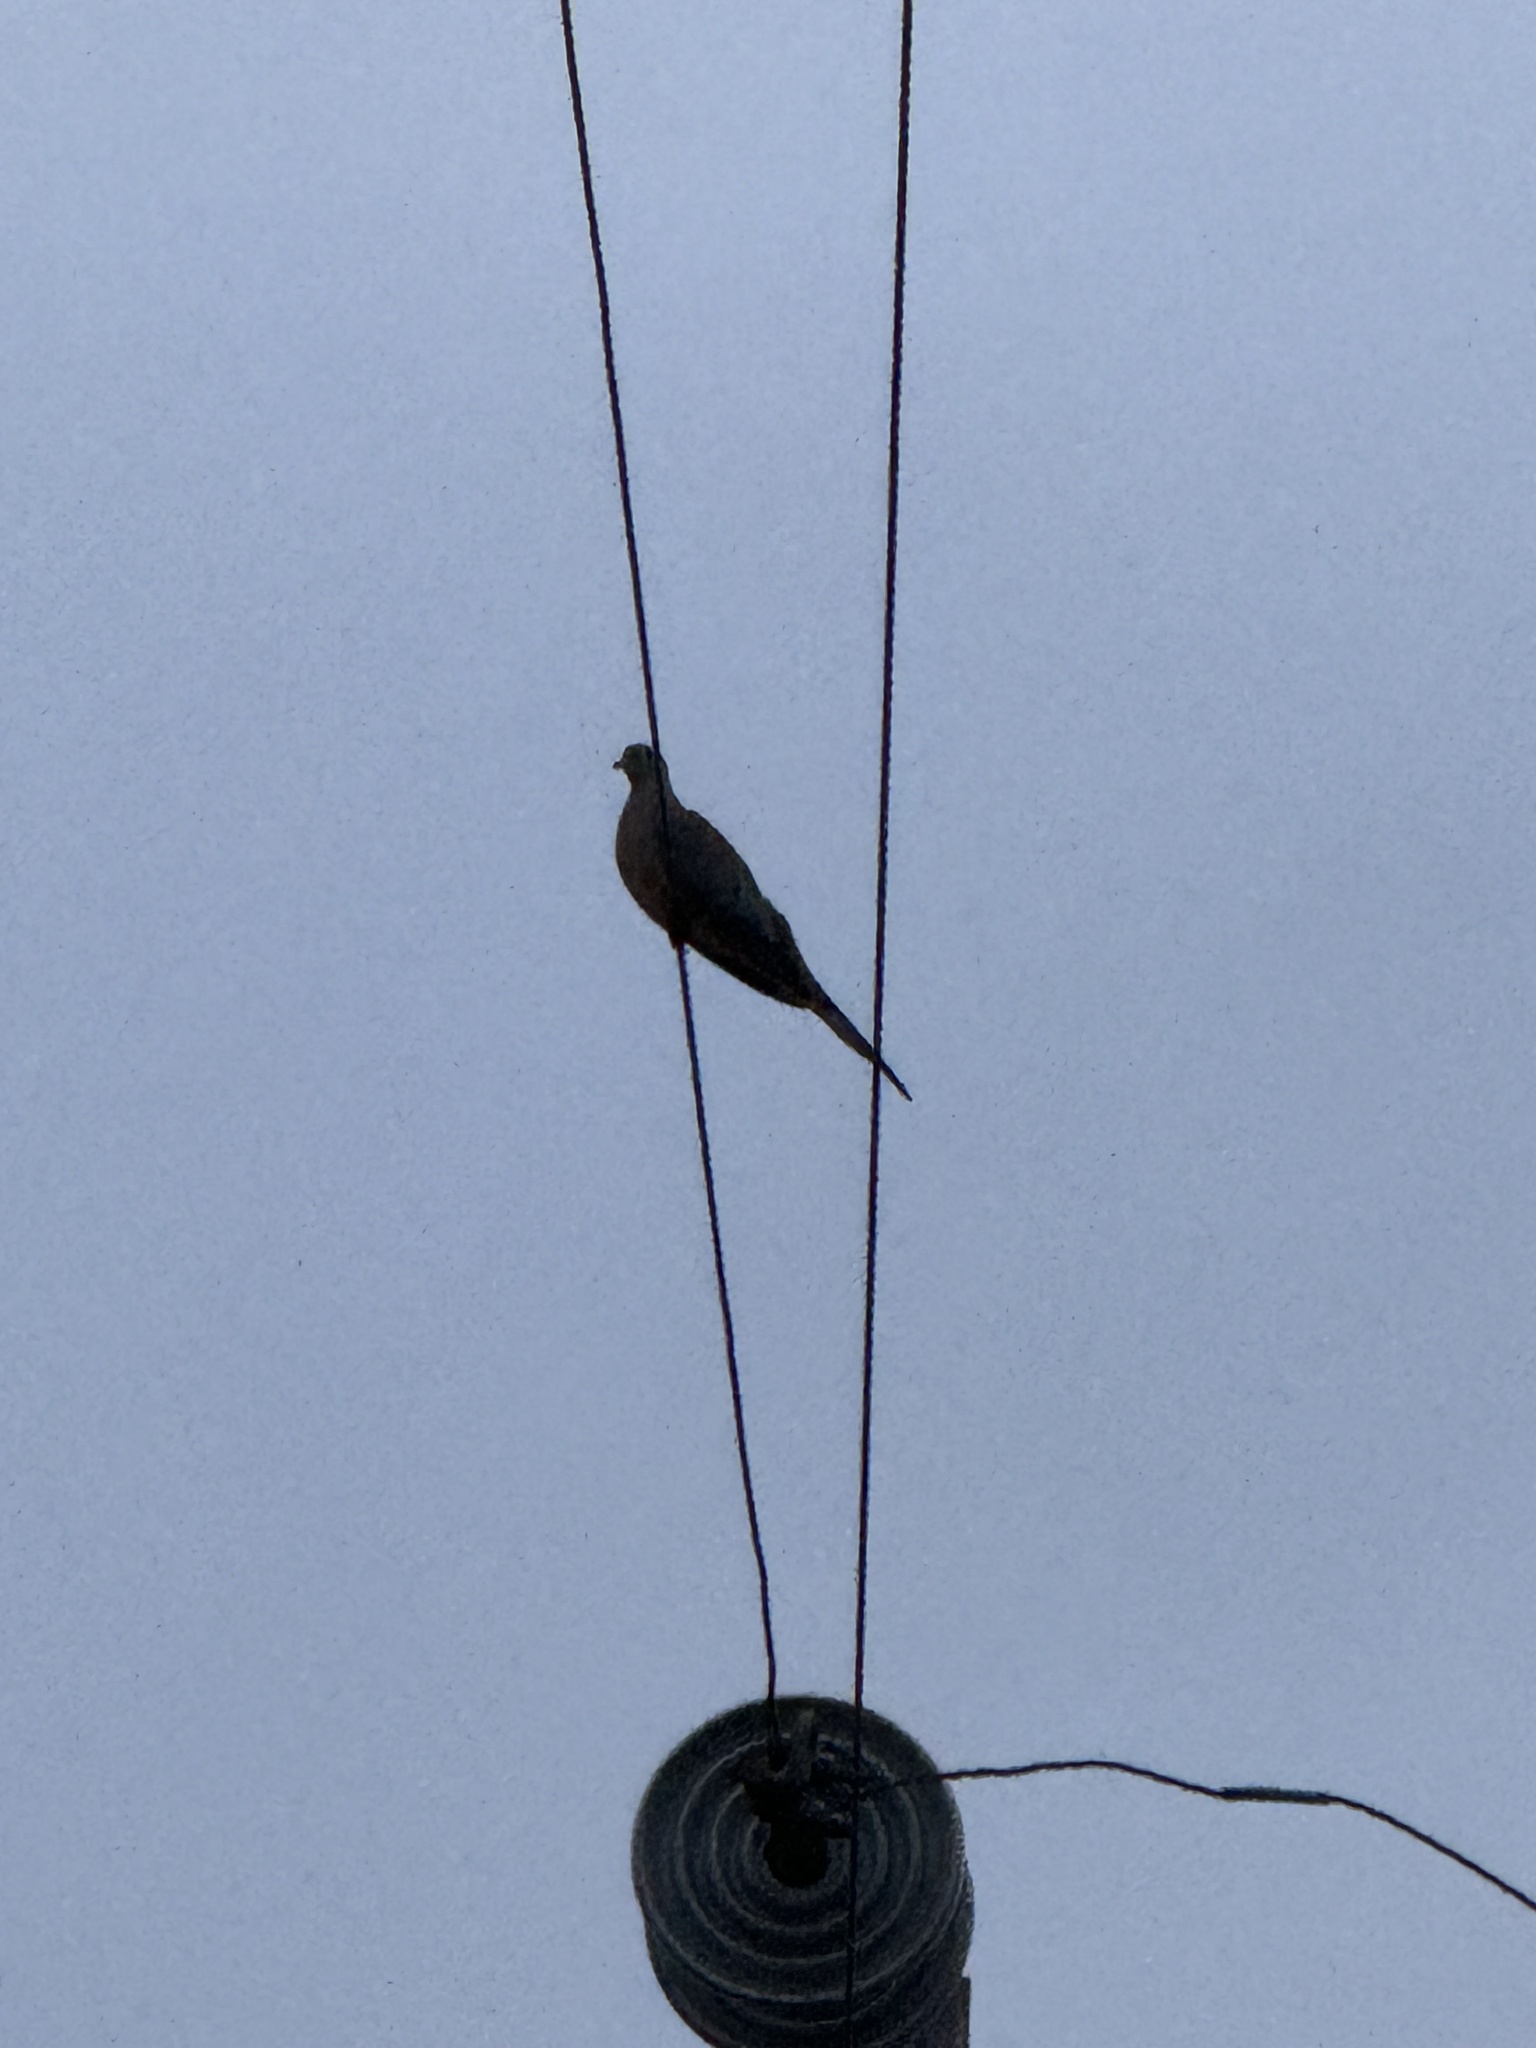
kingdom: Animalia
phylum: Chordata
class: Aves
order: Columbiformes
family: Columbidae
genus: Zenaida
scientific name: Zenaida macroura
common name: Mourning dove
